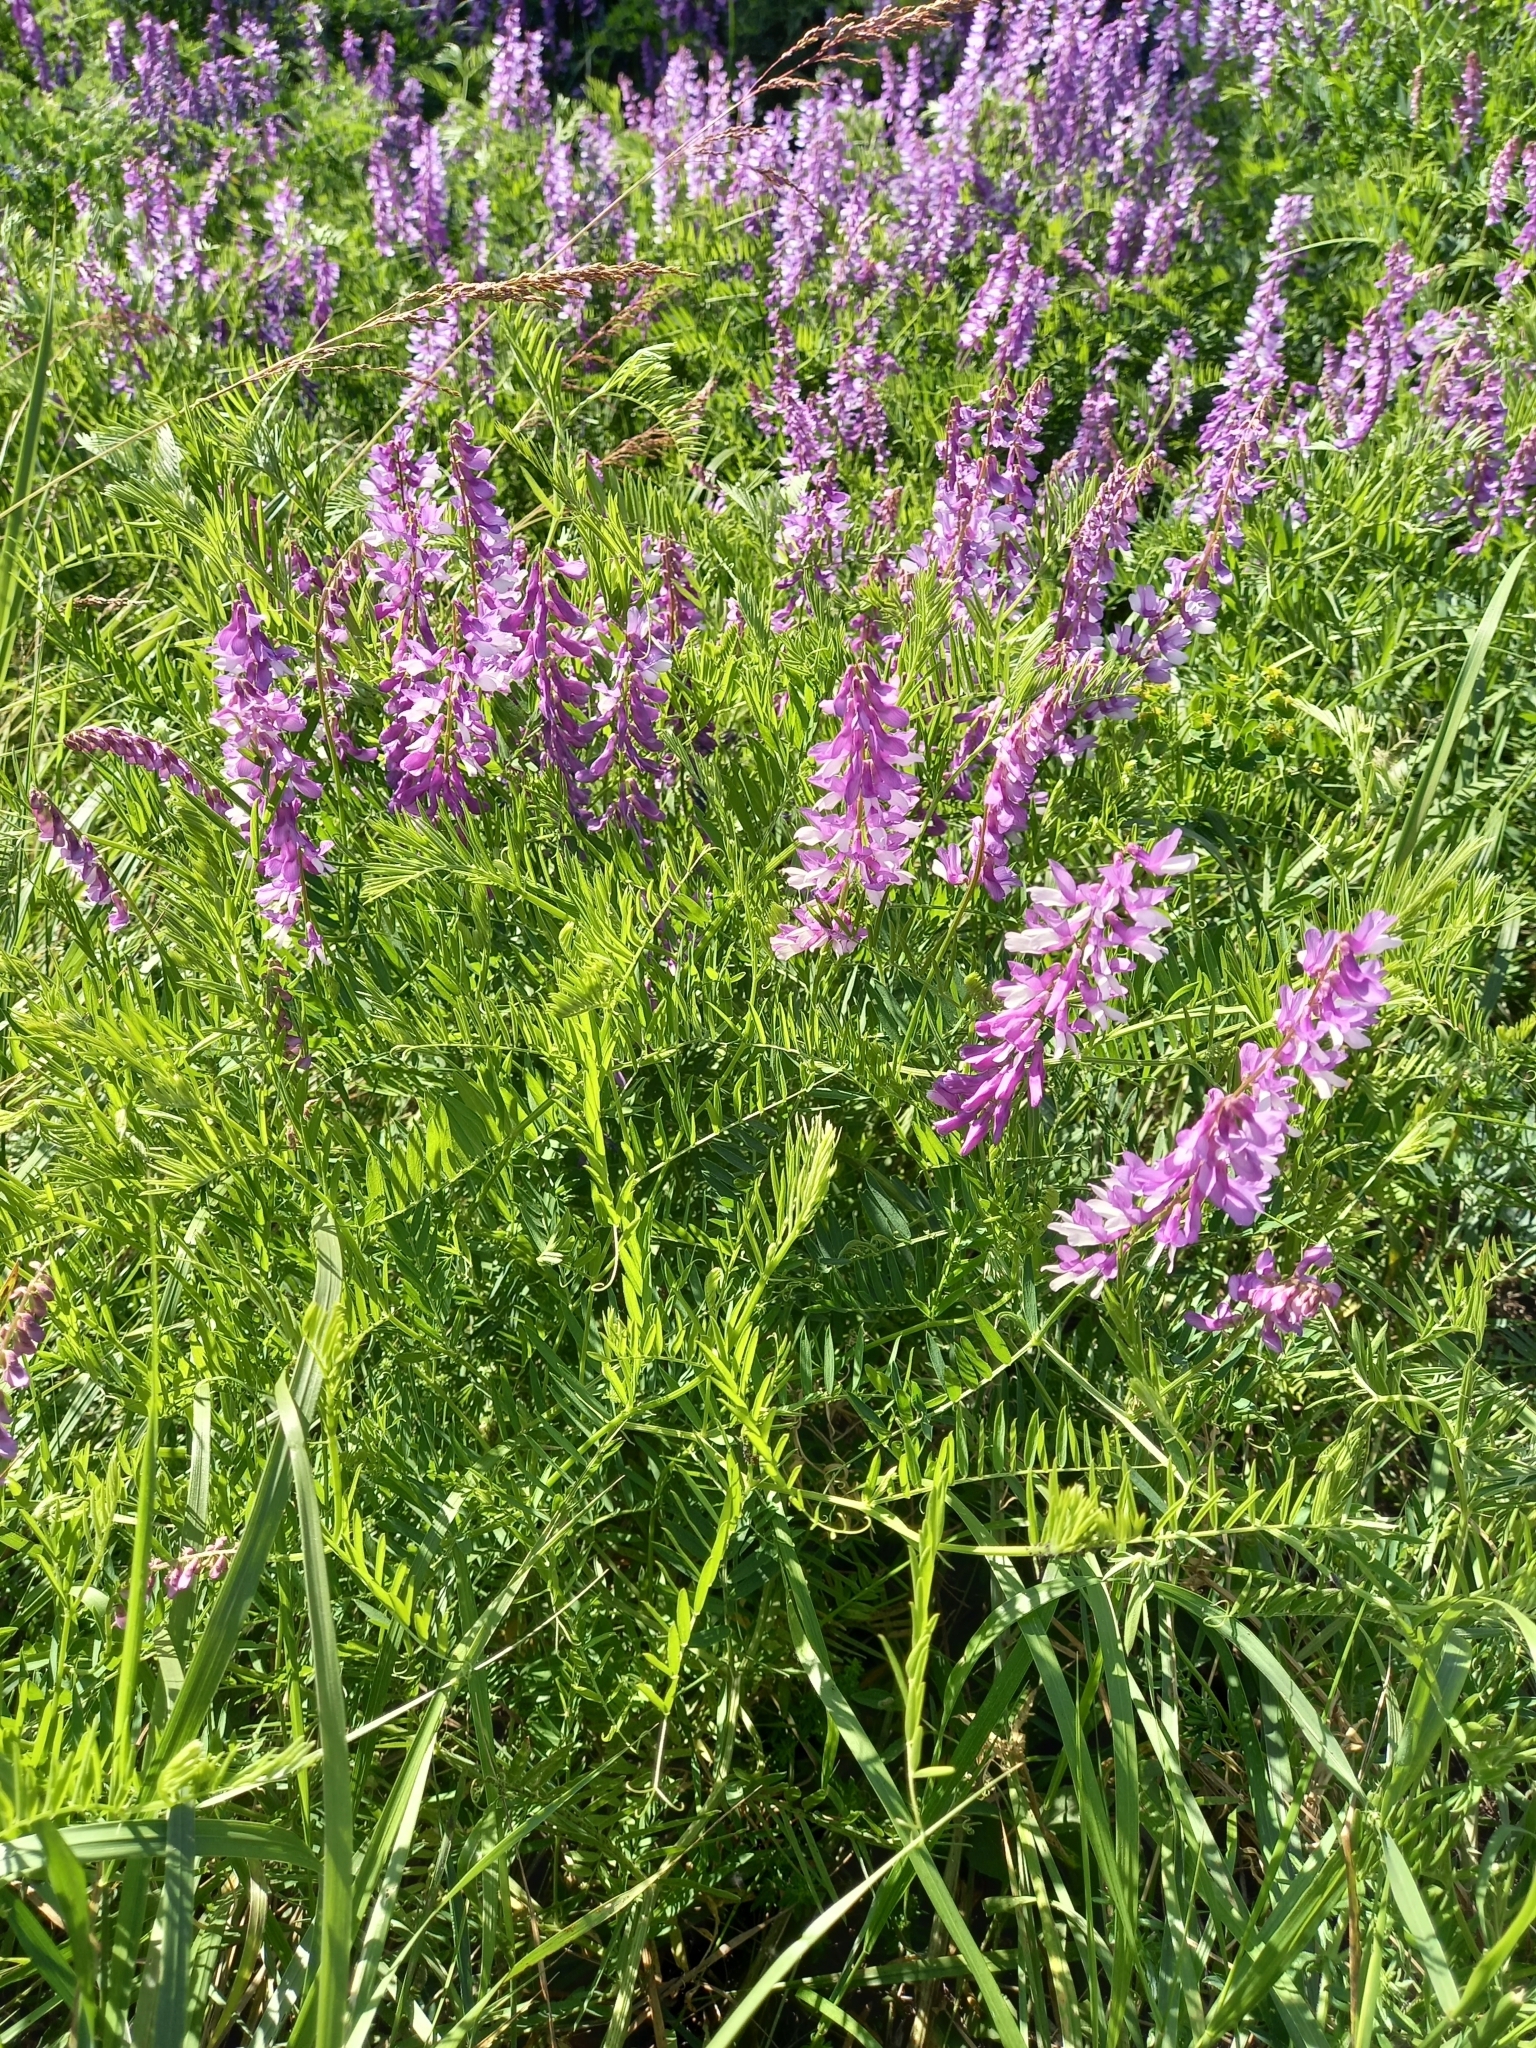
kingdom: Plantae
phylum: Tracheophyta
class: Magnoliopsida
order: Fabales
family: Fabaceae
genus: Vicia
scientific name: Vicia tenuifolia
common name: Fine-leaved vetch
